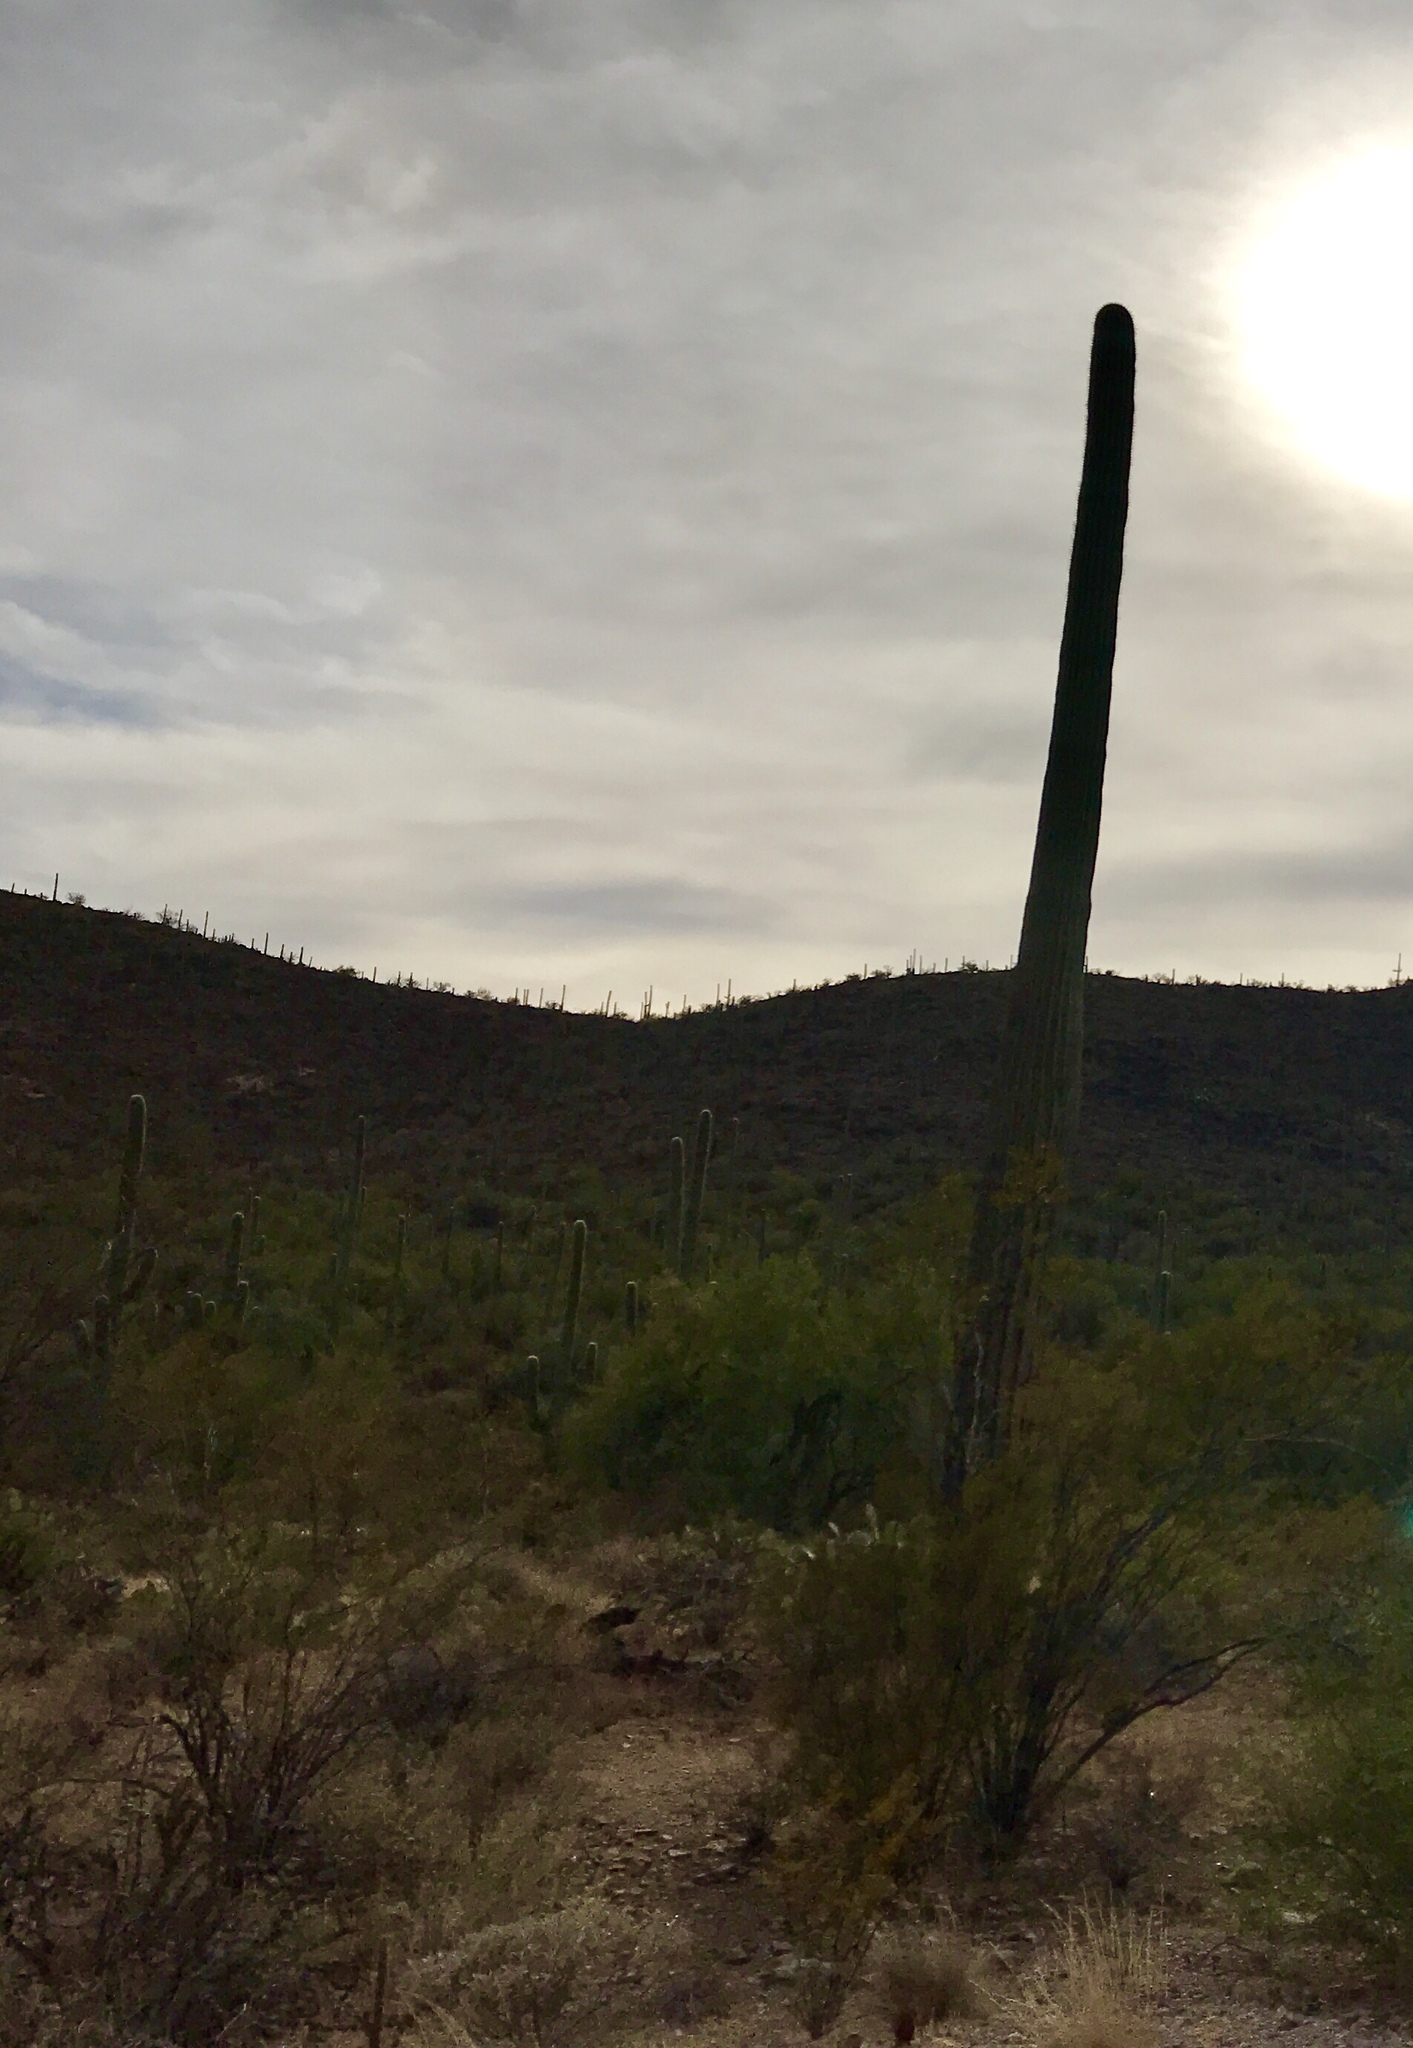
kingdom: Plantae
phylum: Tracheophyta
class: Magnoliopsida
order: Caryophyllales
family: Cactaceae
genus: Carnegiea
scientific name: Carnegiea gigantea
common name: Saguaro
